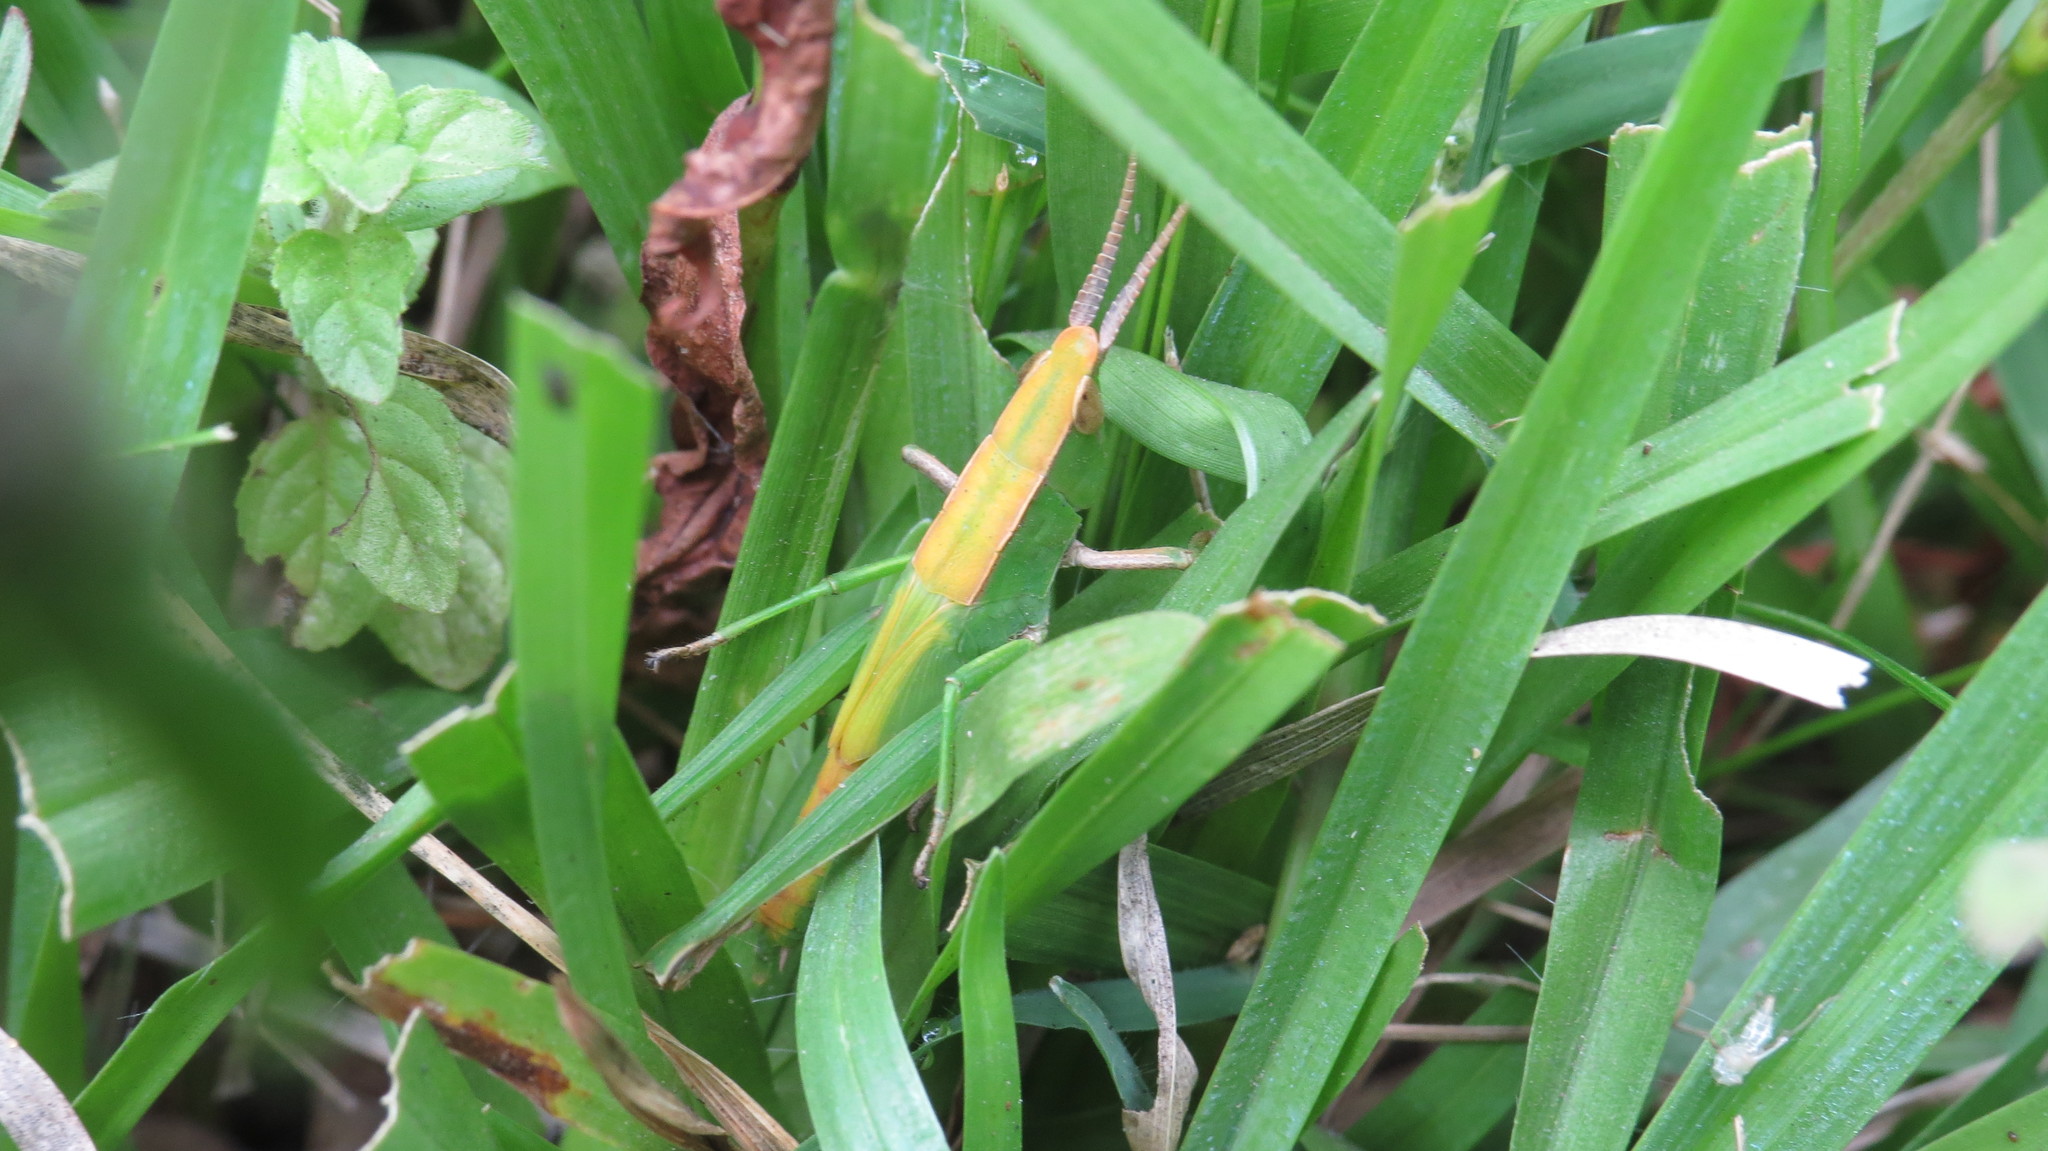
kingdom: Animalia
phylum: Arthropoda
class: Insecta
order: Orthoptera
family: Acrididae
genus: Metaleptea
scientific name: Metaleptea adspersa
